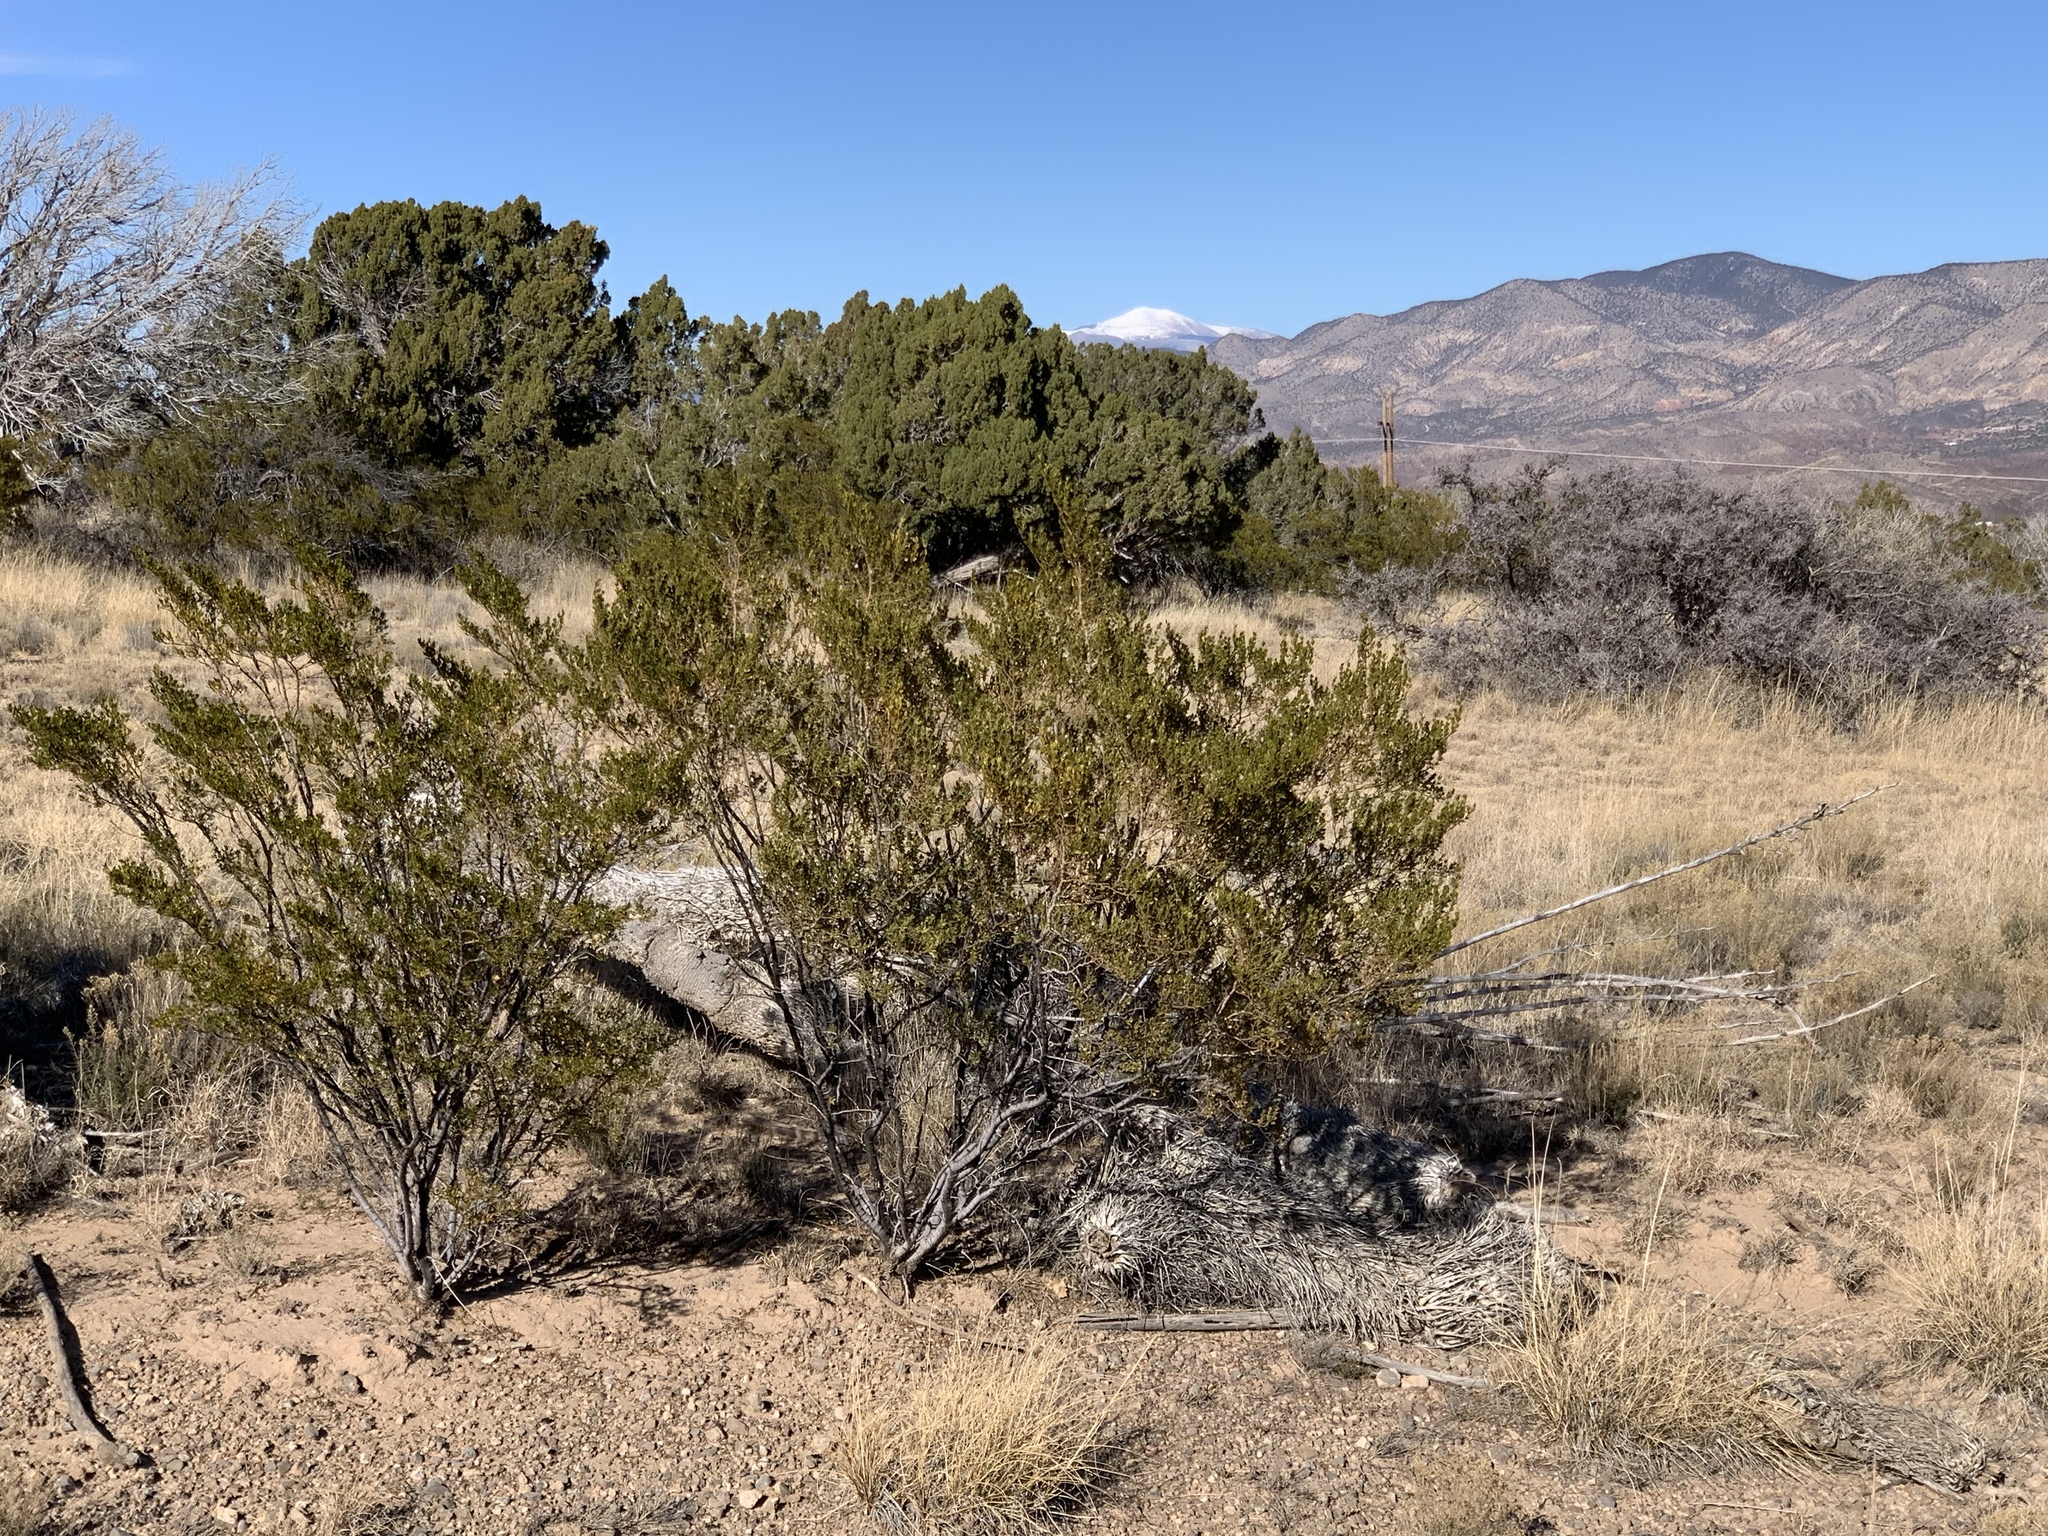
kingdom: Plantae
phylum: Tracheophyta
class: Magnoliopsida
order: Zygophyllales
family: Zygophyllaceae
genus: Larrea
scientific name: Larrea tridentata
